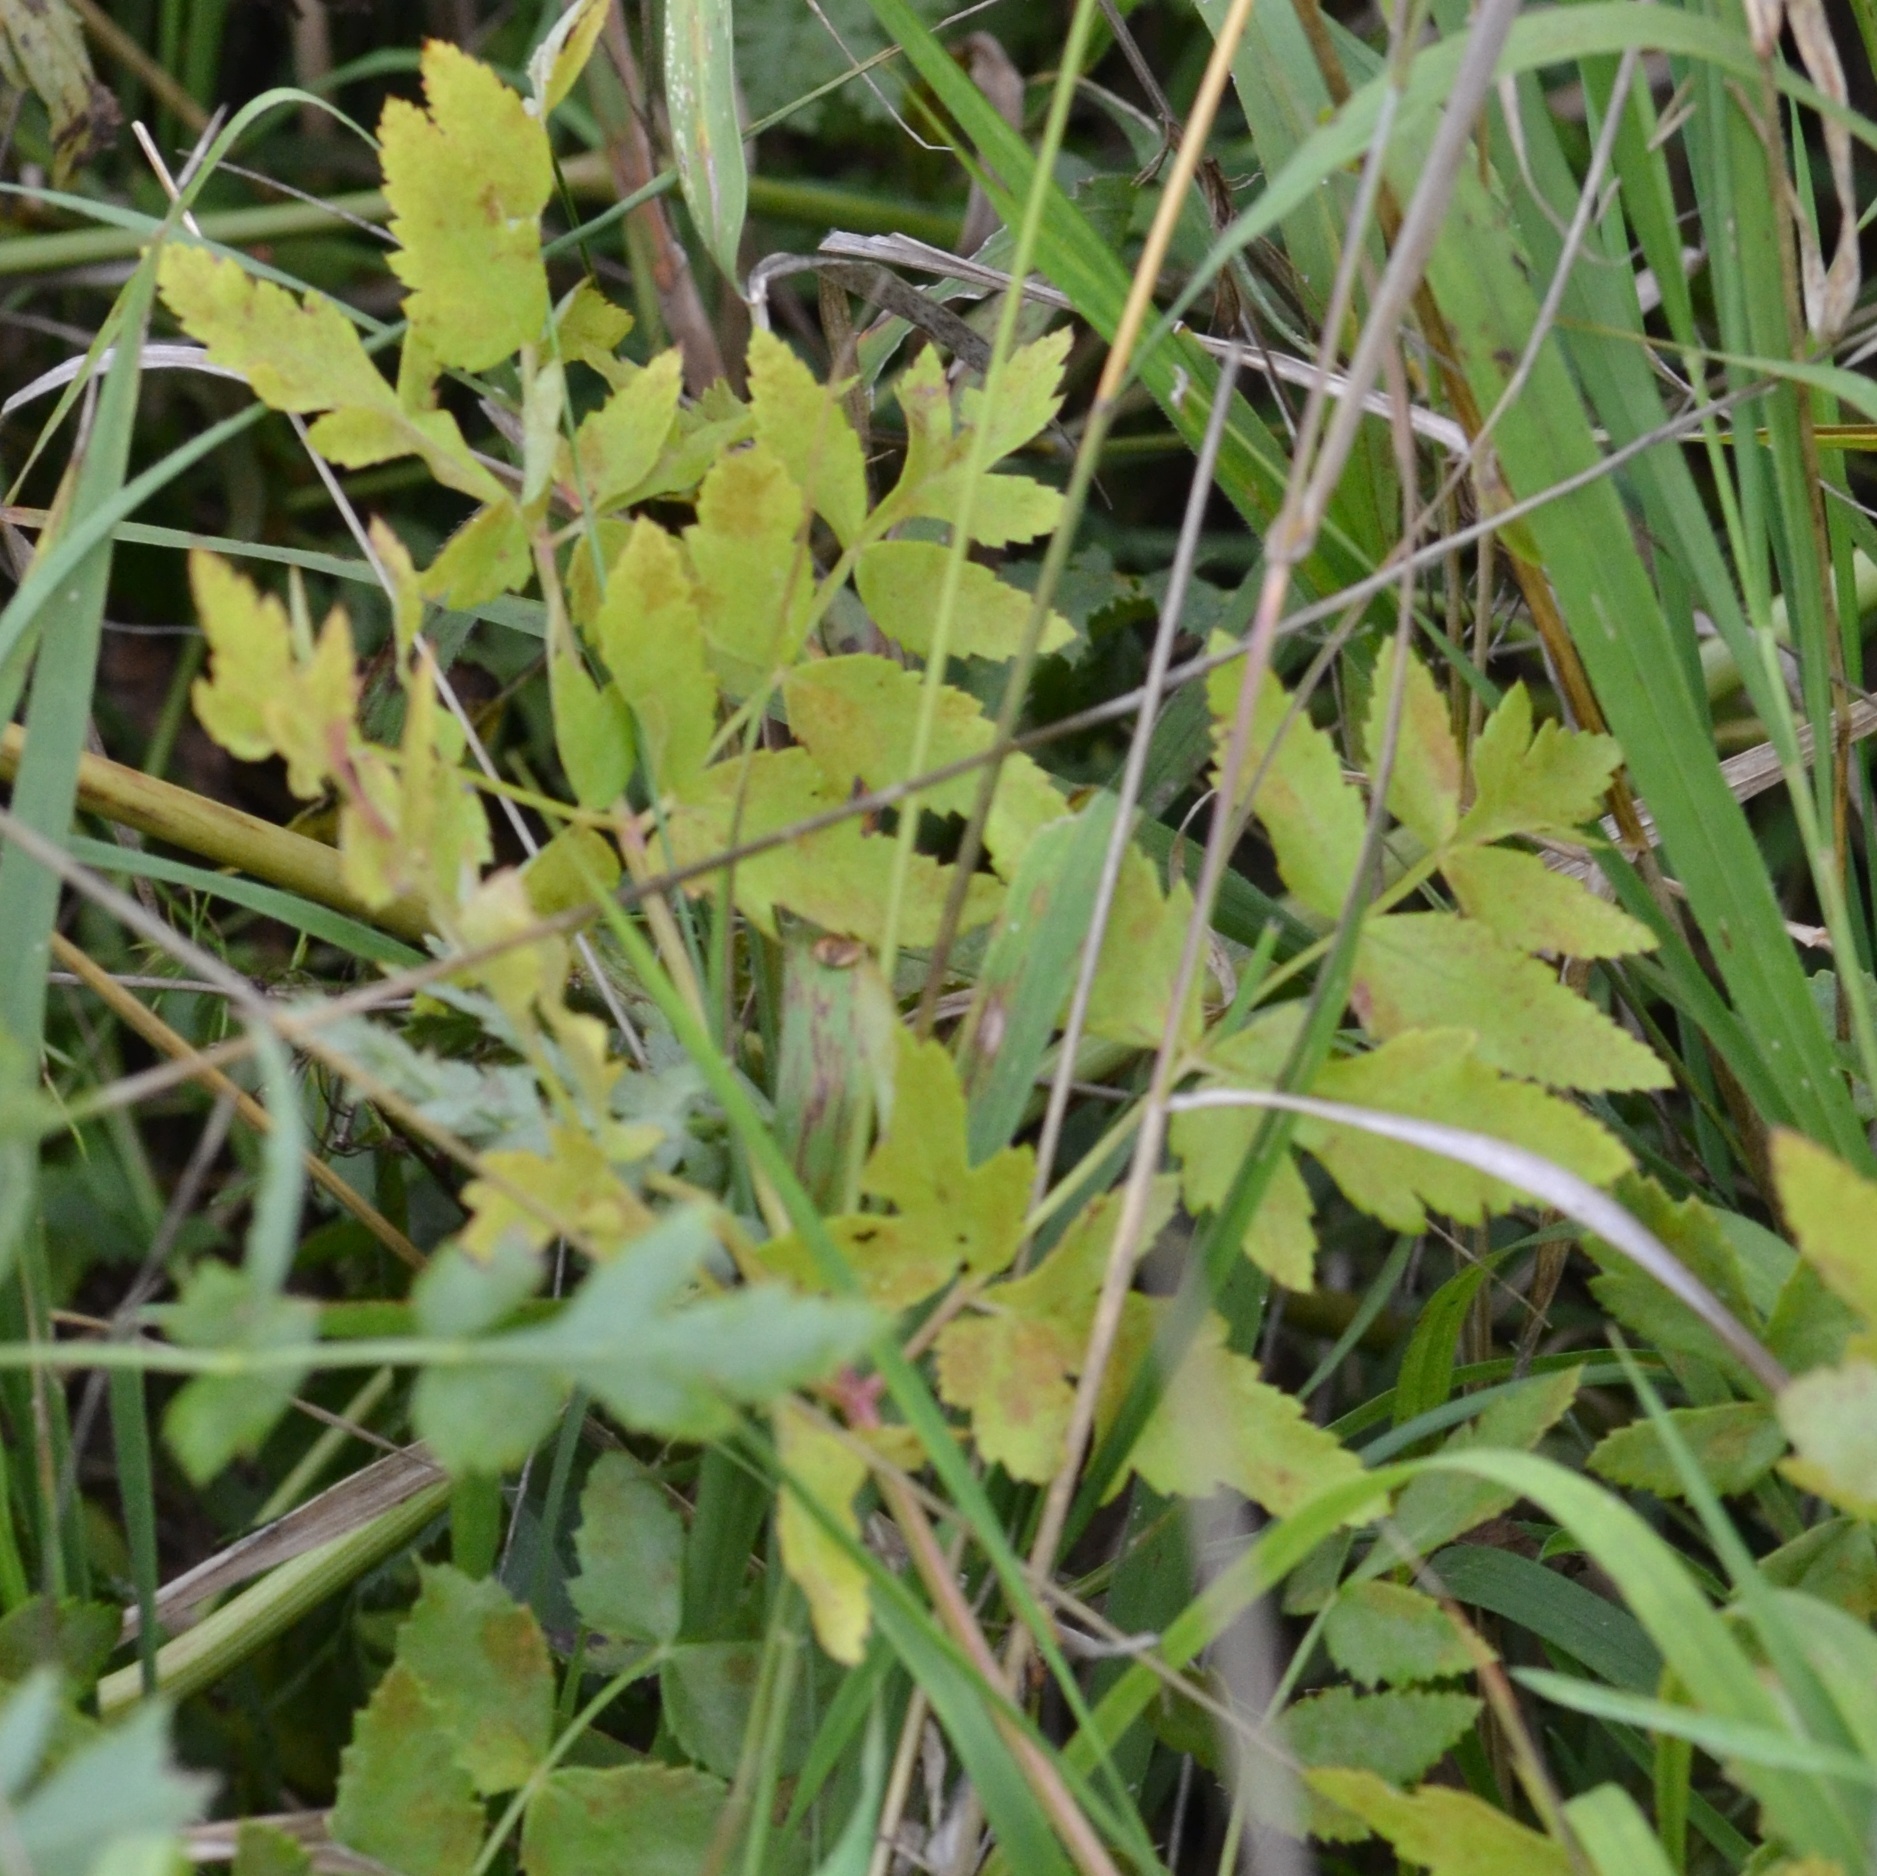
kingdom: Plantae
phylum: Tracheophyta
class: Magnoliopsida
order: Apiales
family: Apiaceae
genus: Cervaria
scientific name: Cervaria rivini
